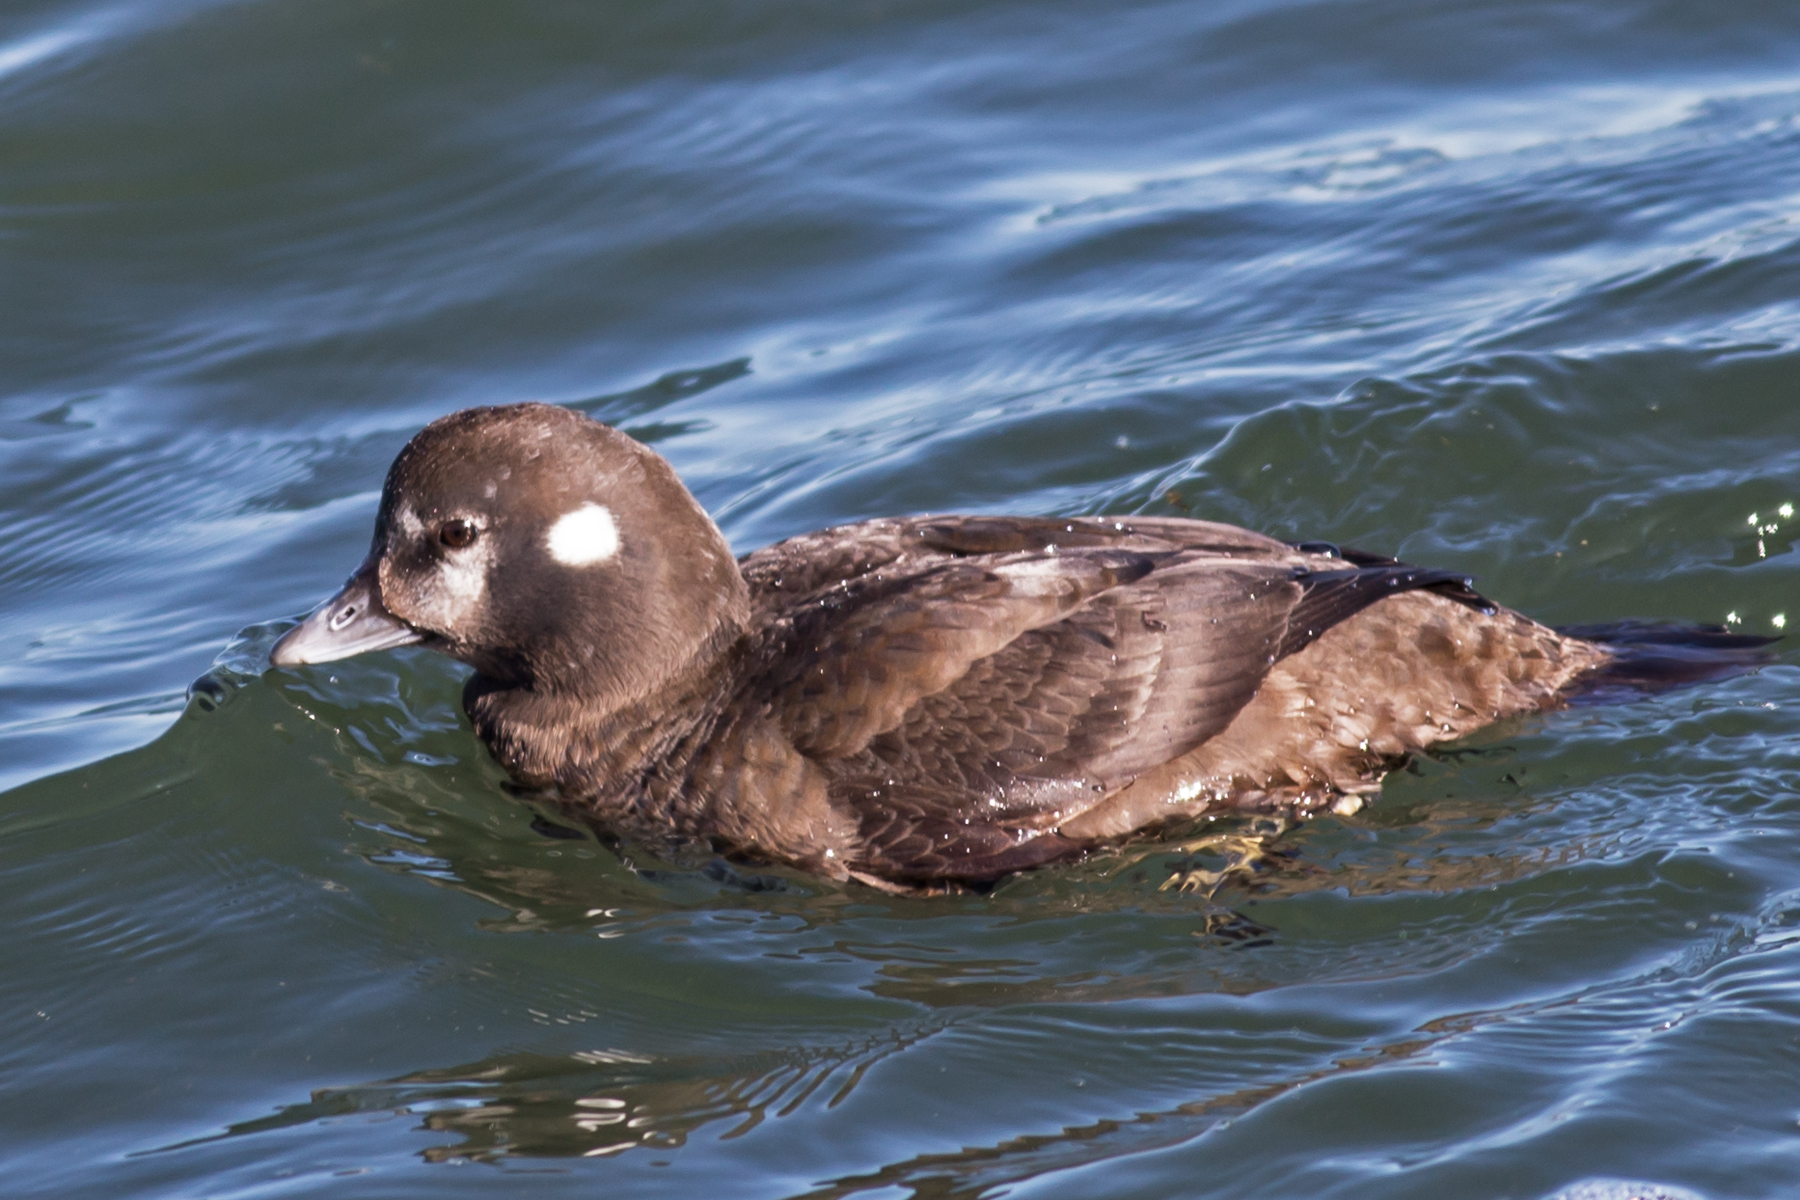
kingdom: Animalia
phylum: Chordata
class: Aves
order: Anseriformes
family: Anatidae
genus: Histrionicus
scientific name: Histrionicus histrionicus
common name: Harlequin duck
